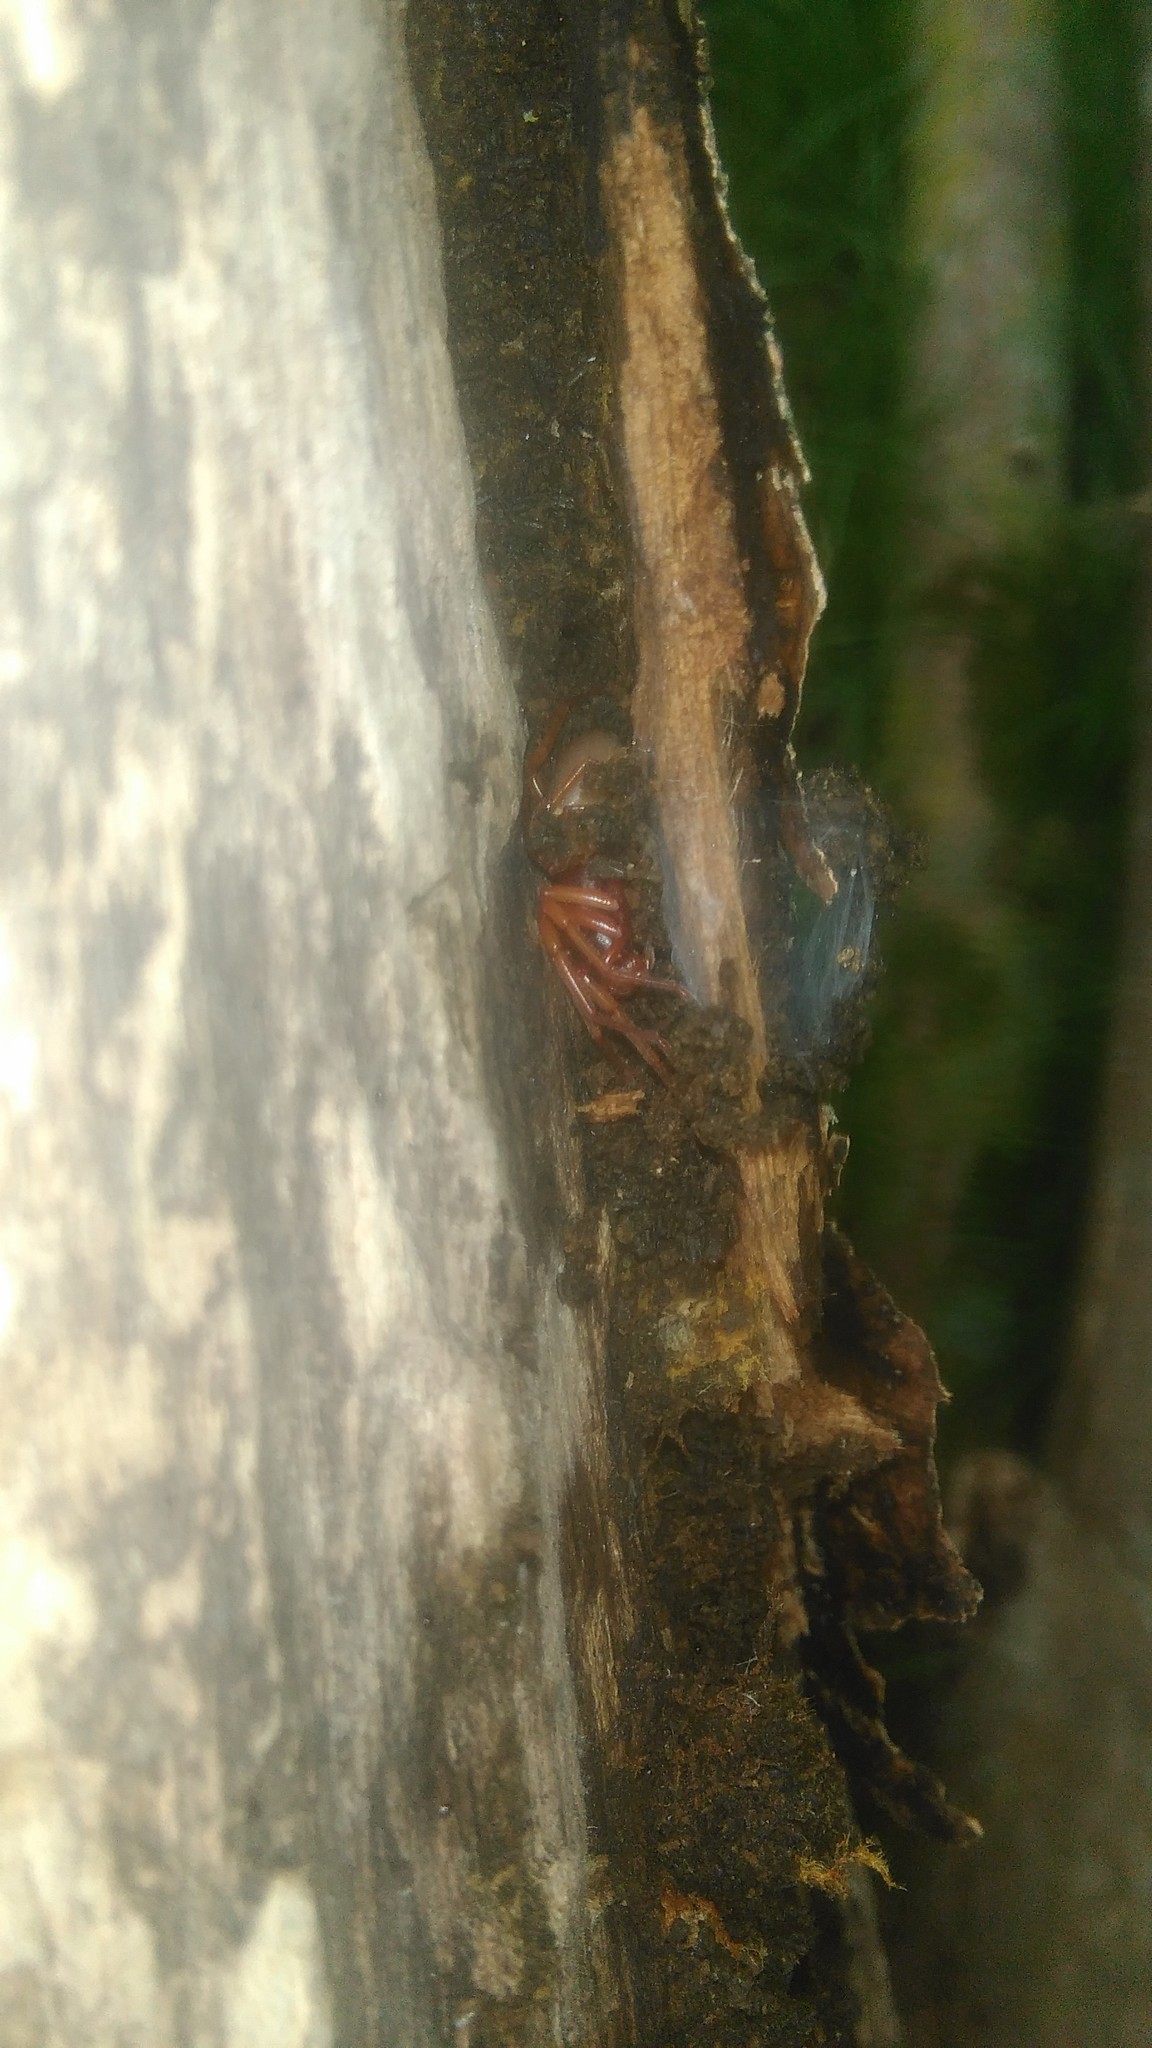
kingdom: Animalia
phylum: Arthropoda
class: Arachnida
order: Araneae
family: Dysderidae
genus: Dysdera
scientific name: Dysdera crocata
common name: Woodlouse spider
